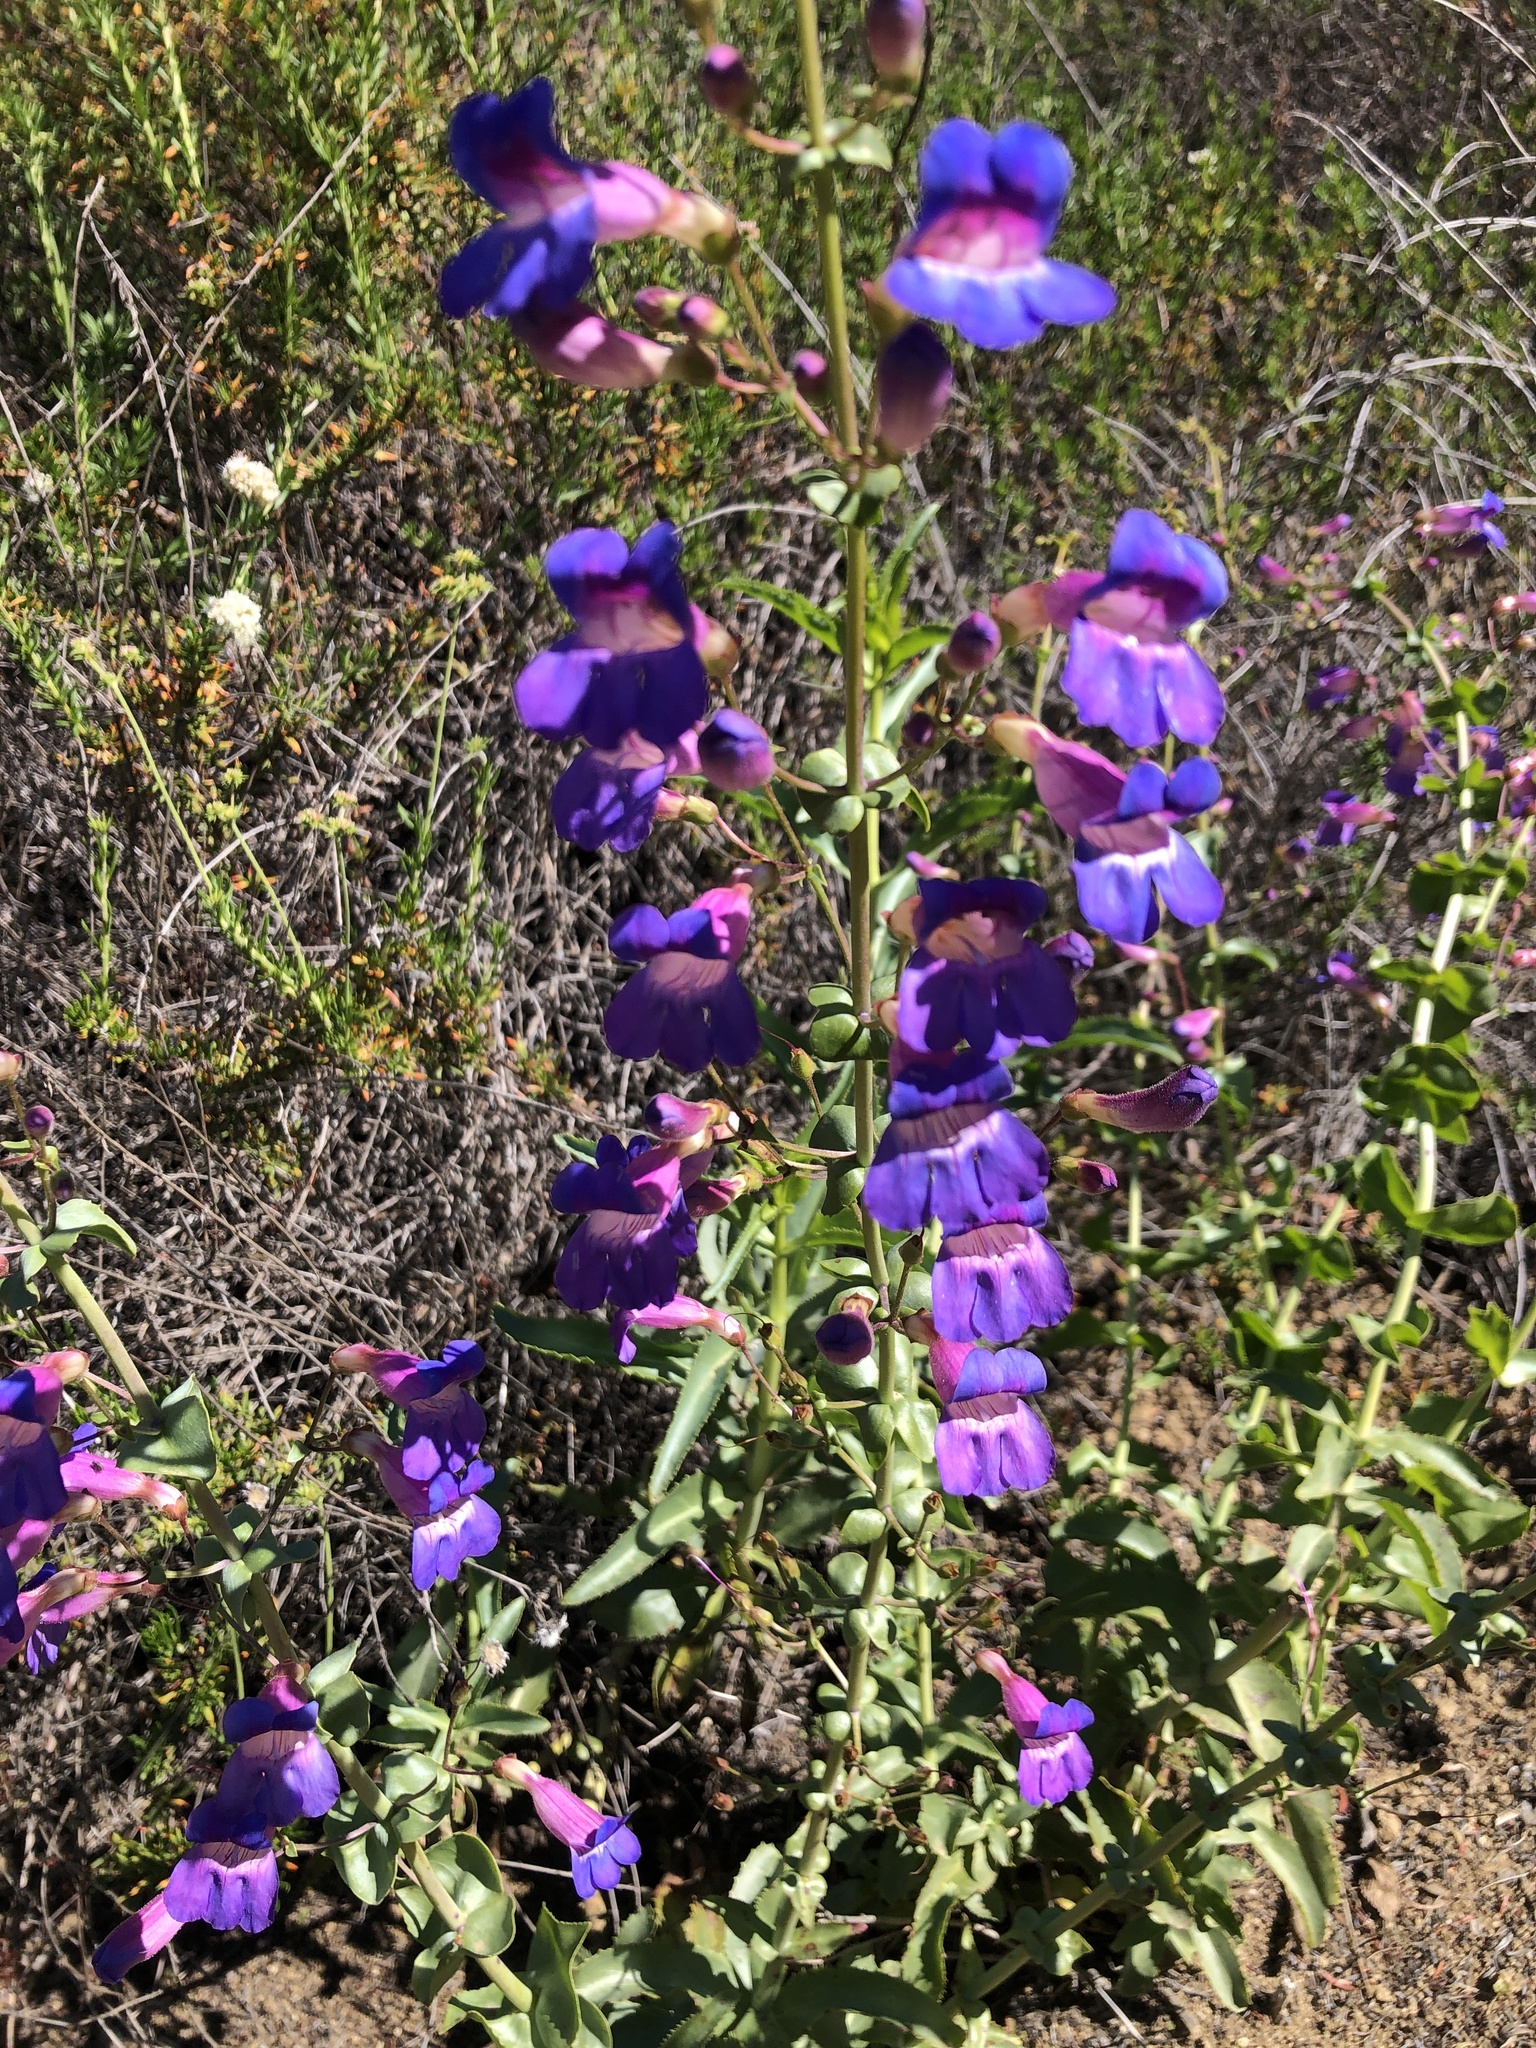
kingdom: Plantae
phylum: Tracheophyta
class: Magnoliopsida
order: Lamiales
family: Plantaginaceae
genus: Penstemon
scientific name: Penstemon spectabilis
